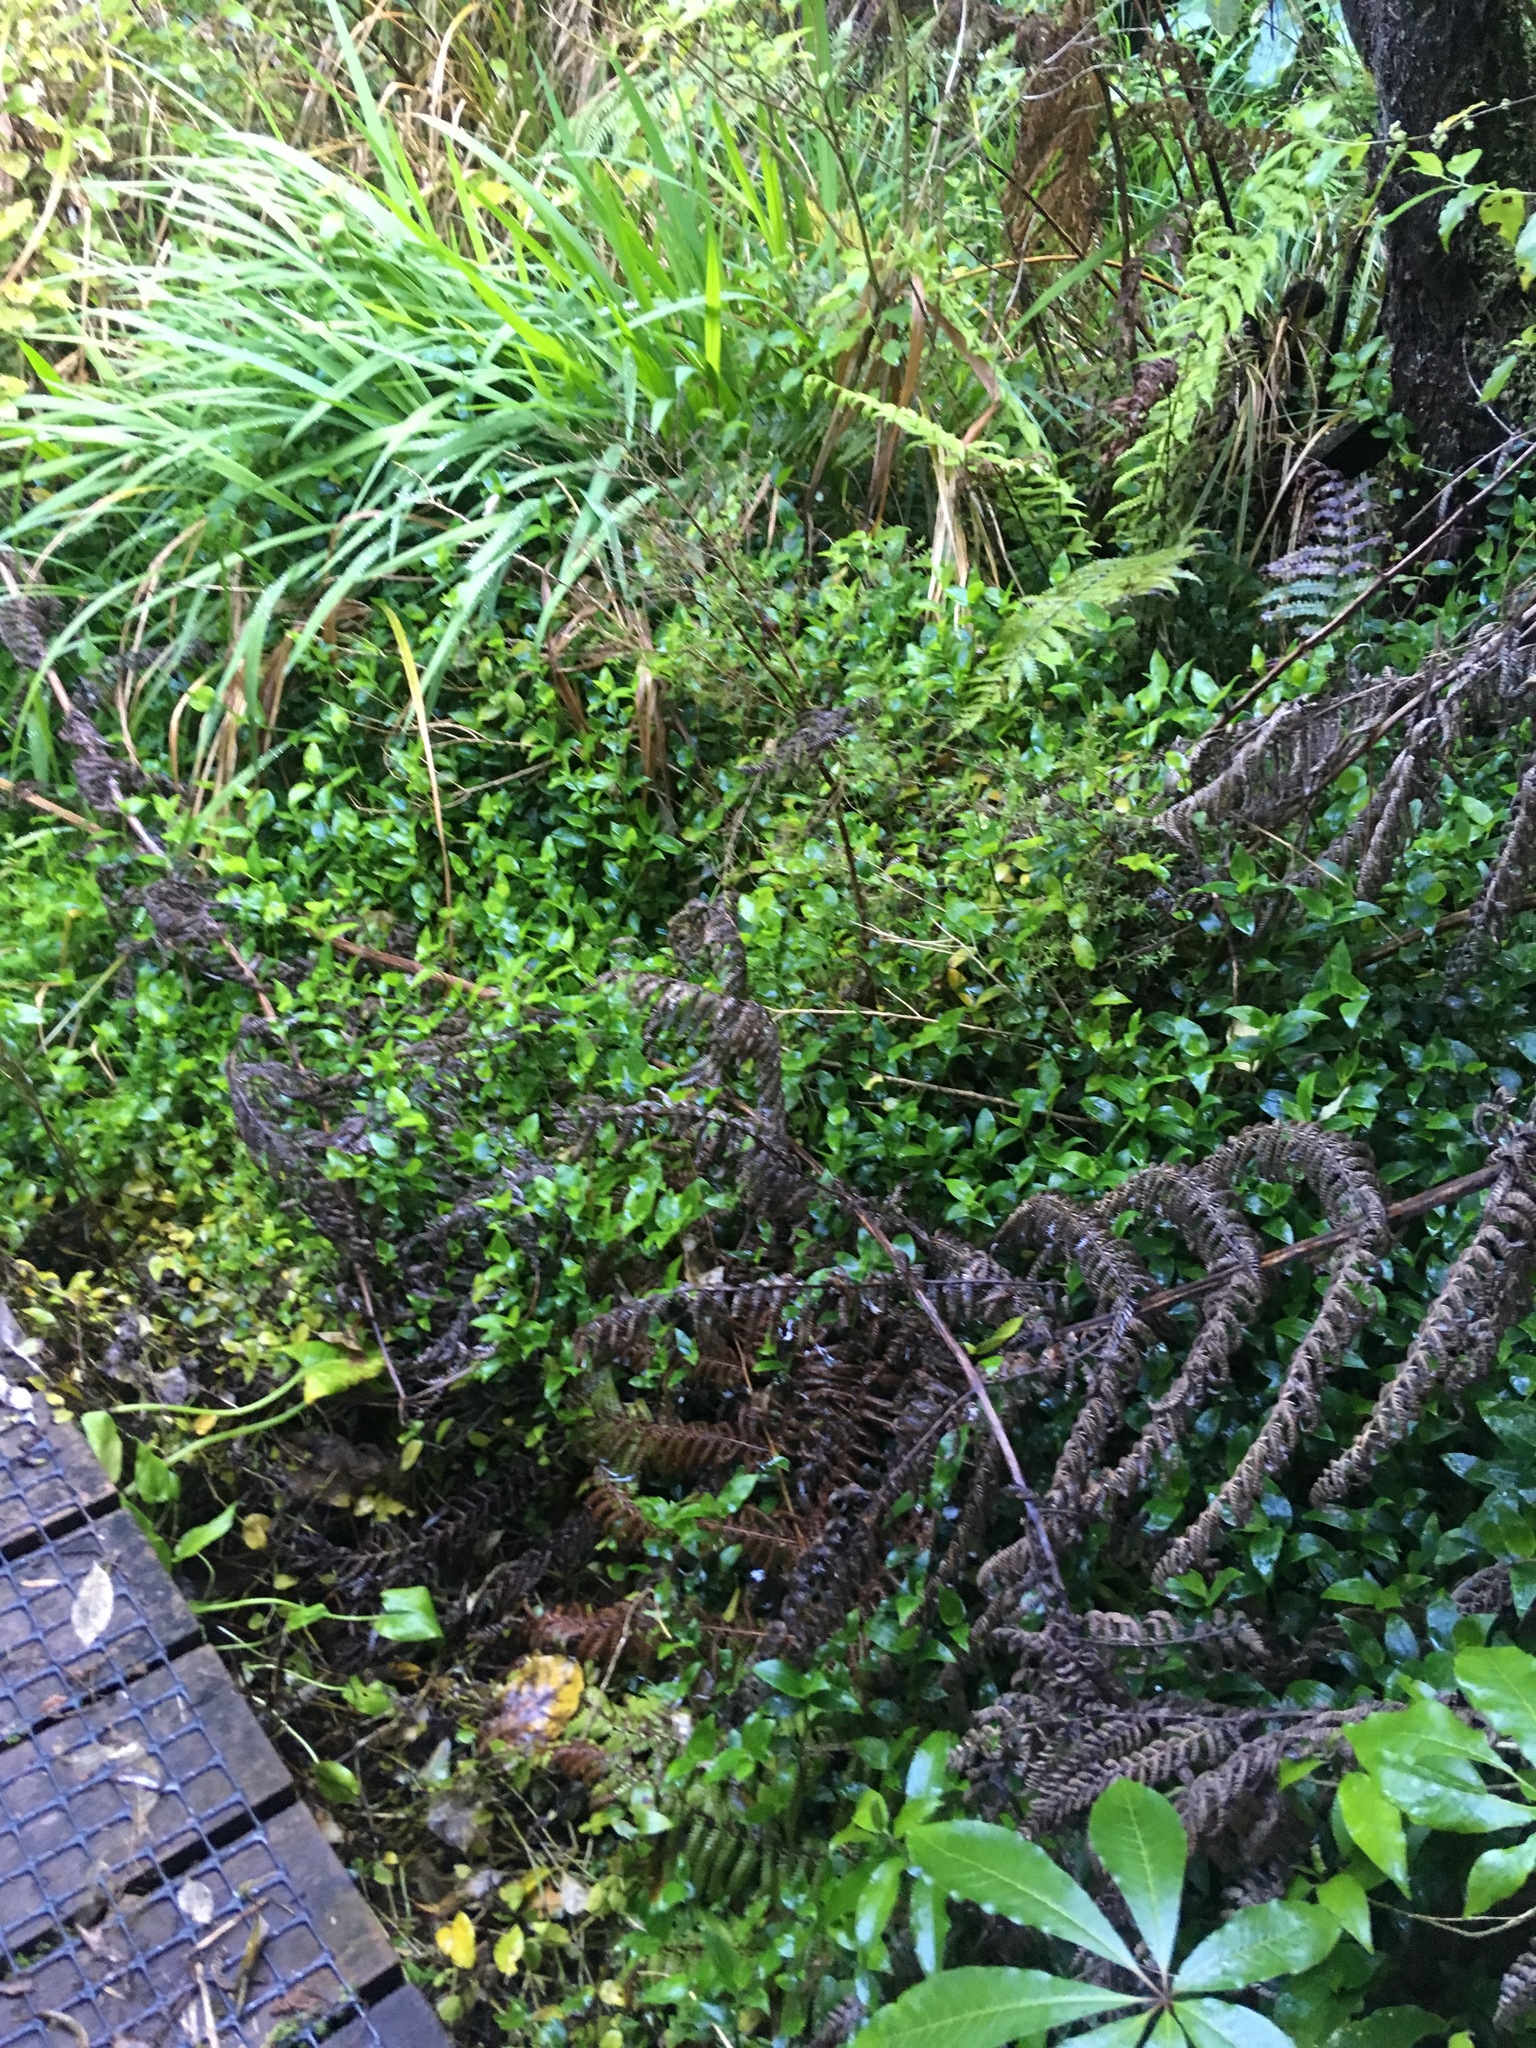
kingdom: Plantae
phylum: Tracheophyta
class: Liliopsida
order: Asparagales
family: Iridaceae
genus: Crocosmia
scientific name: Crocosmia crocosmiiflora
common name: Montbretia
